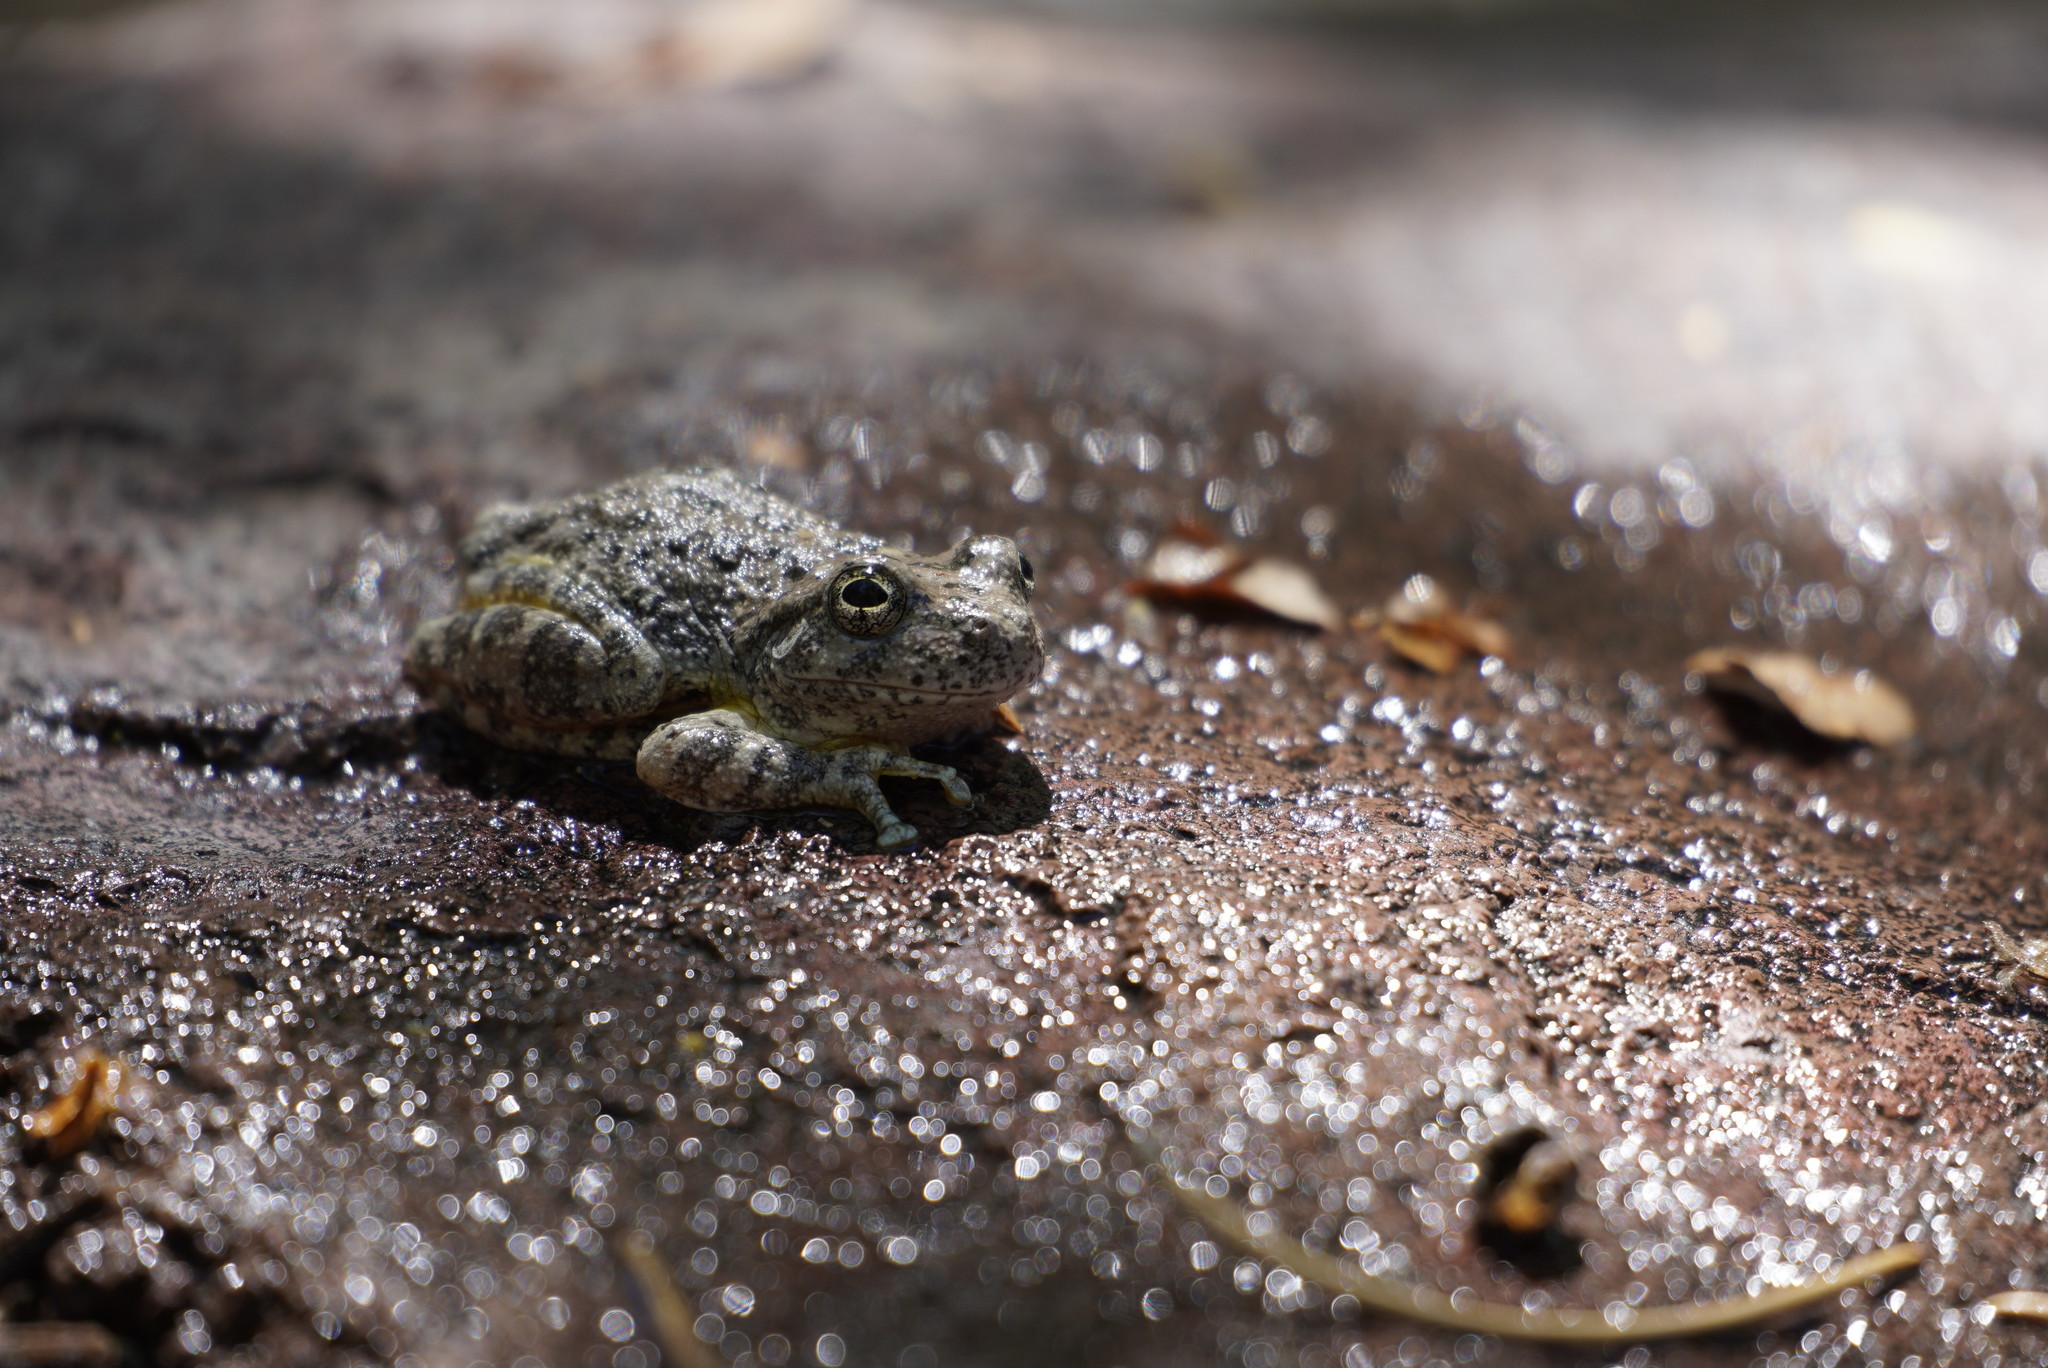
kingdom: Animalia
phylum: Chordata
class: Amphibia
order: Anura
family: Hylidae
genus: Dryophytes
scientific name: Dryophytes arenicolor
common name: Canyon treefrog
